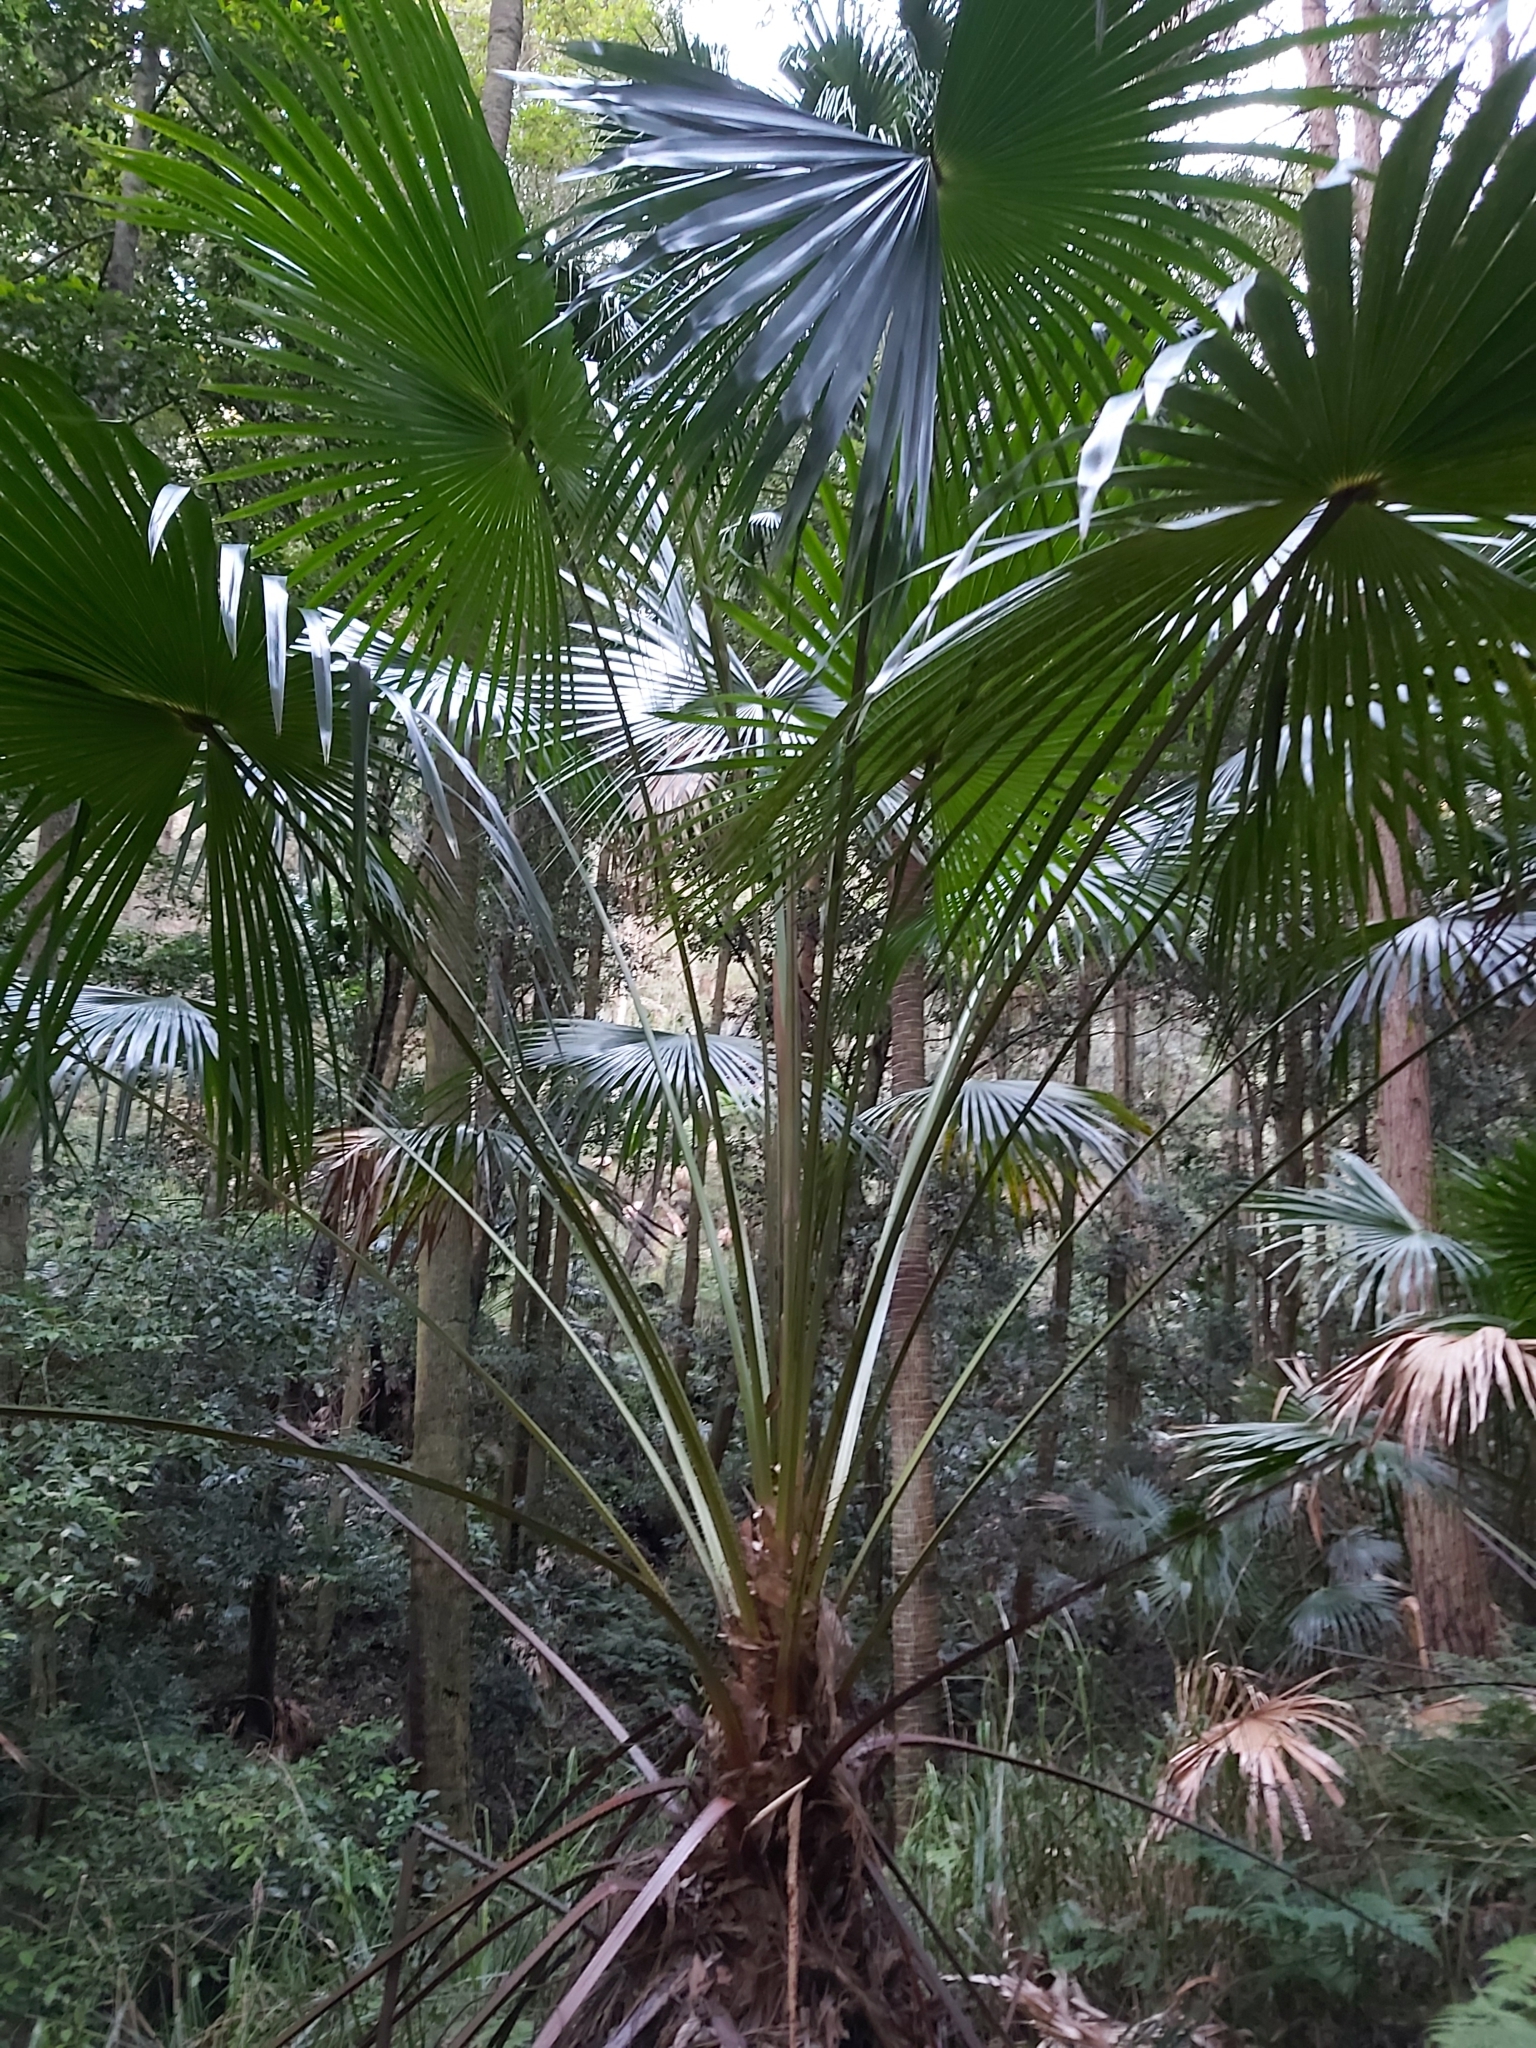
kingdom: Plantae
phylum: Tracheophyta
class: Liliopsida
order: Arecales
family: Arecaceae
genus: Livistona
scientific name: Livistona australis
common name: Cabbage fan palm
